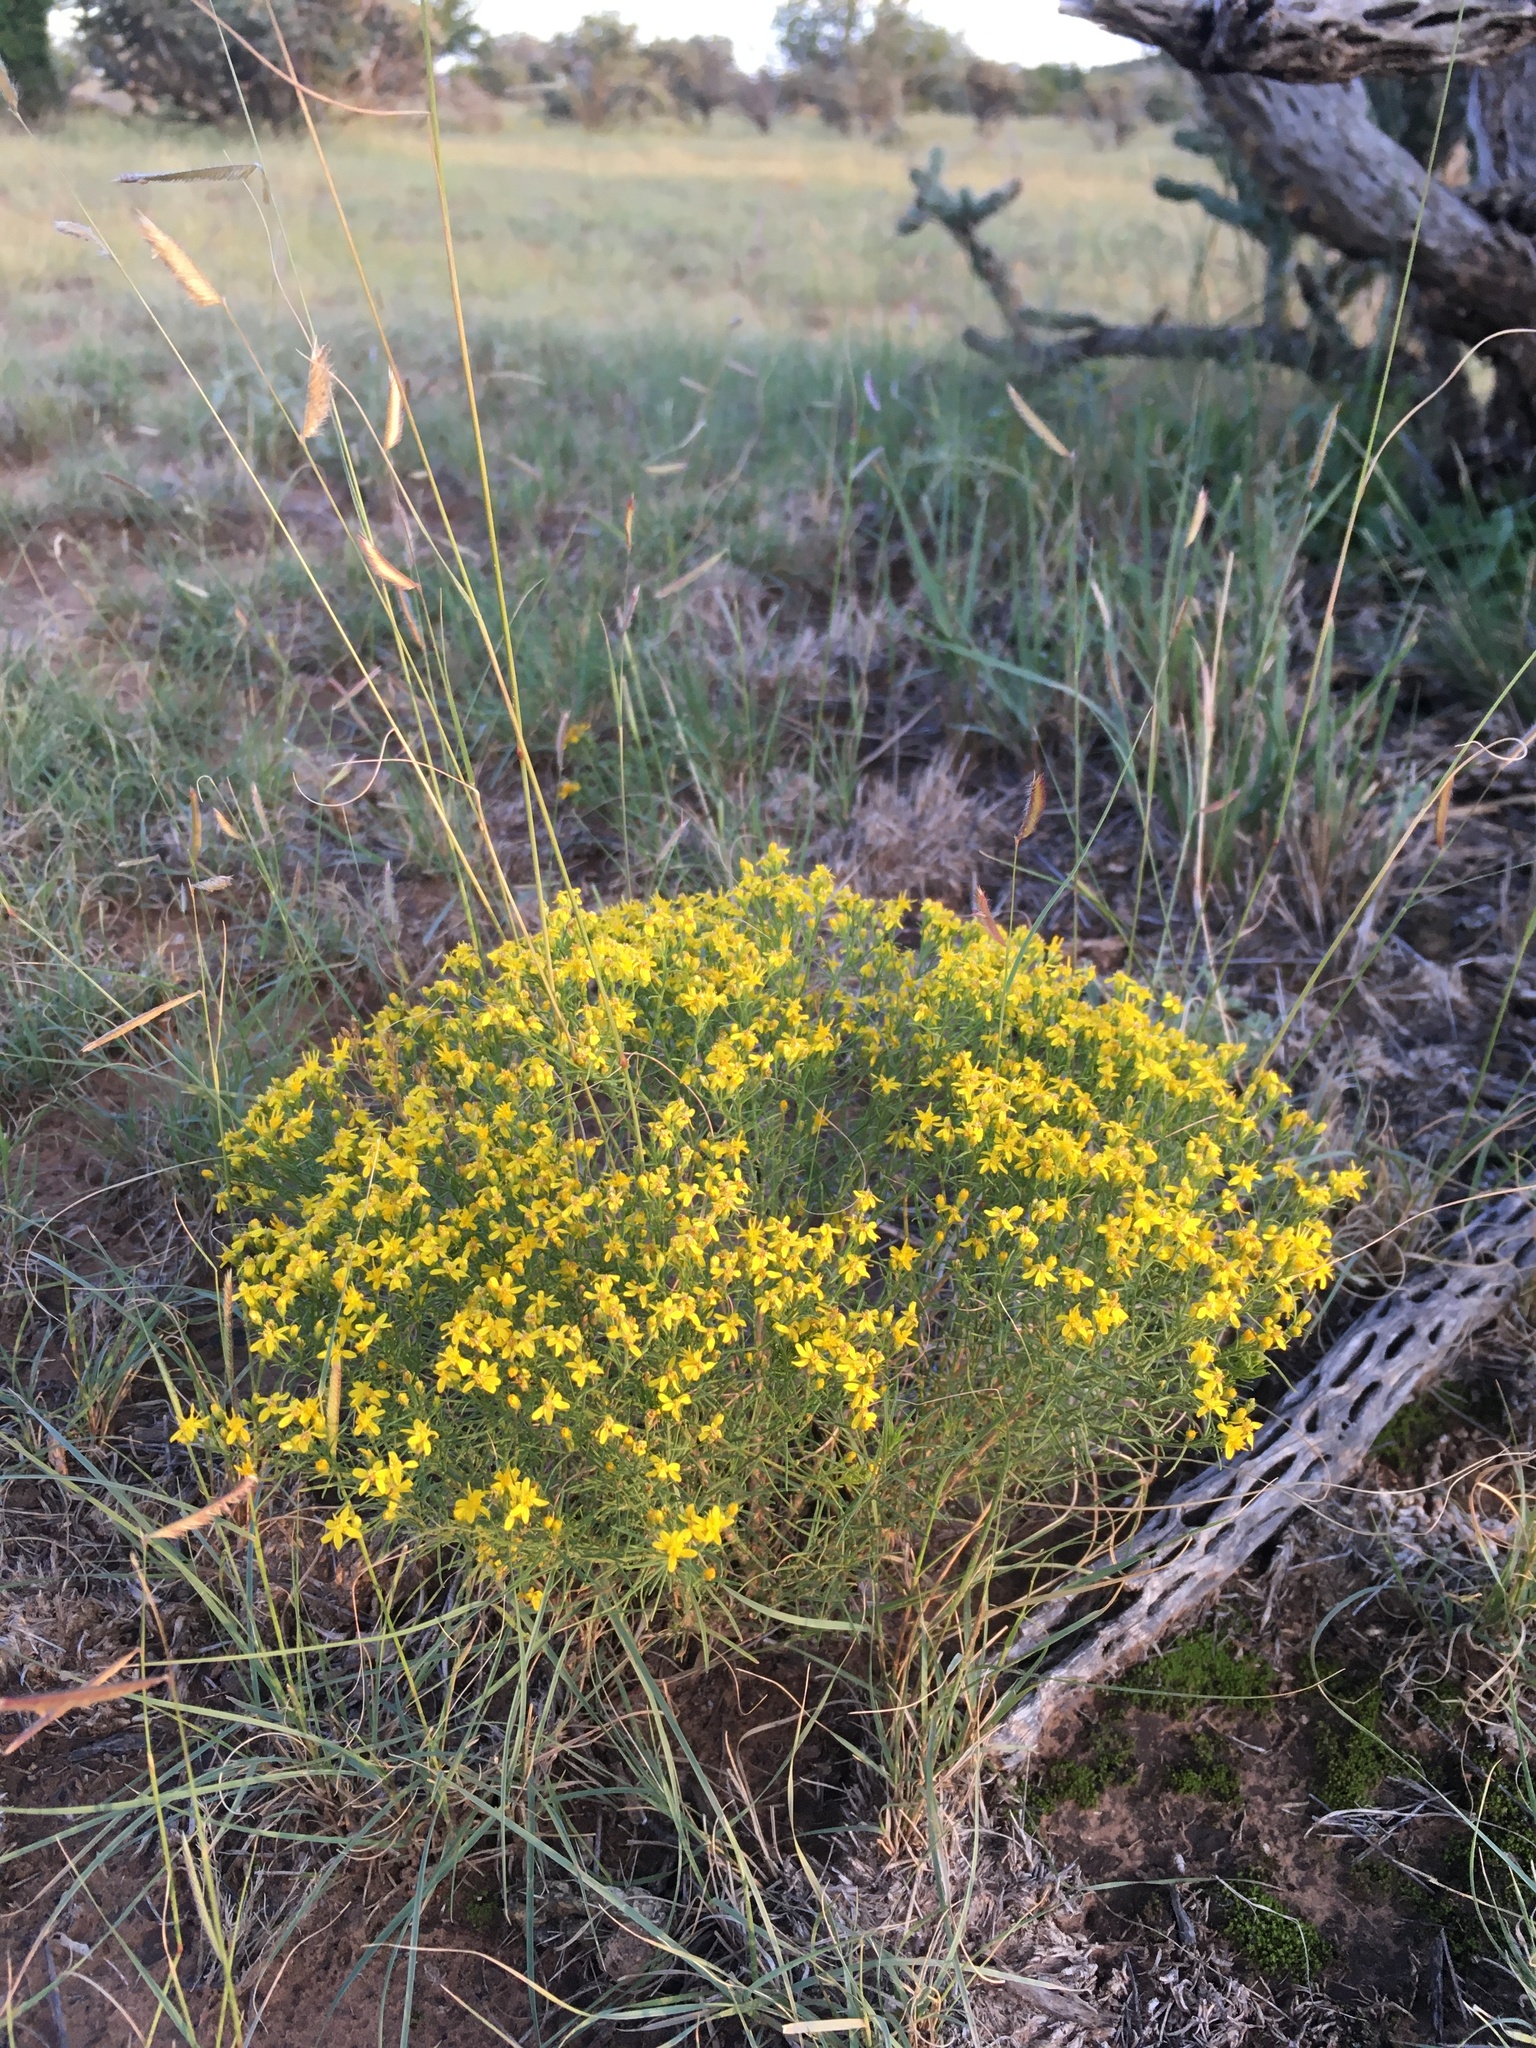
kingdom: Plantae
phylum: Tracheophyta
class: Magnoliopsida
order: Asterales
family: Asteraceae
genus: Gutierrezia
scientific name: Gutierrezia sarothrae
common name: Broom snakeweed
